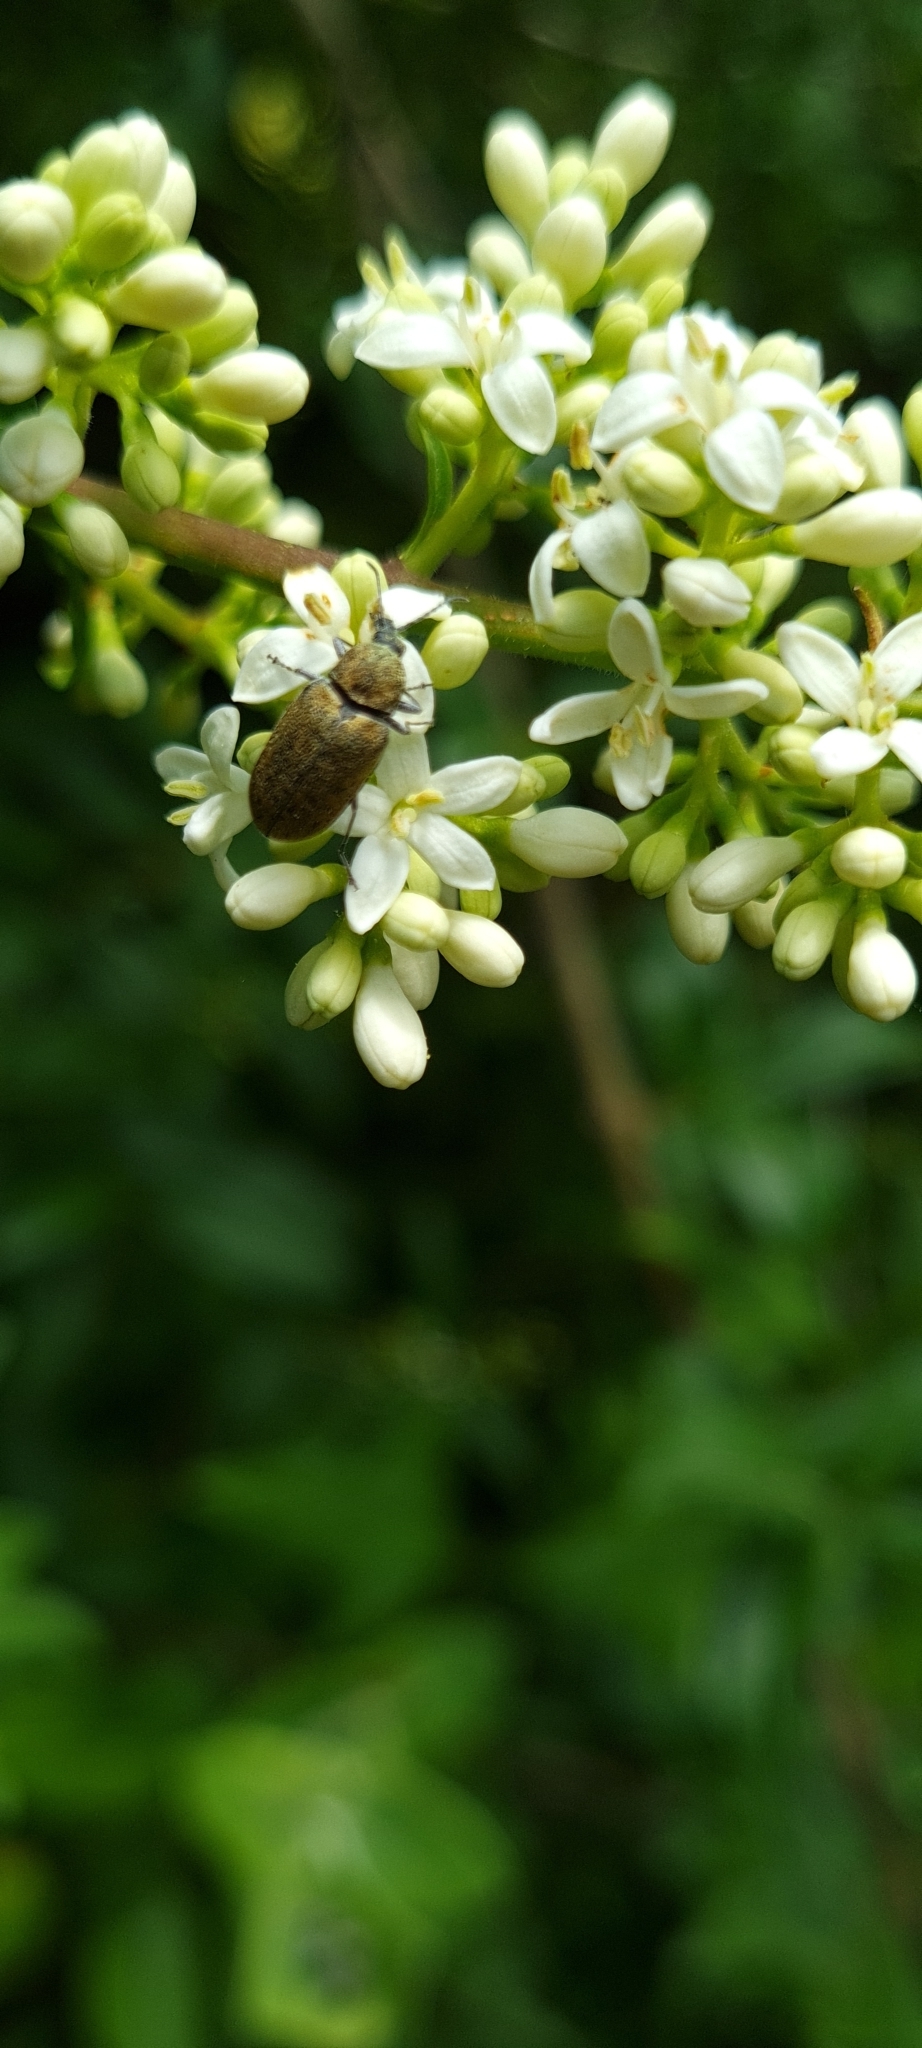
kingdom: Animalia
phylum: Arthropoda
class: Insecta
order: Coleoptera
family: Mycteridae
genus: Mycterus
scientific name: Mycterus curculioides
